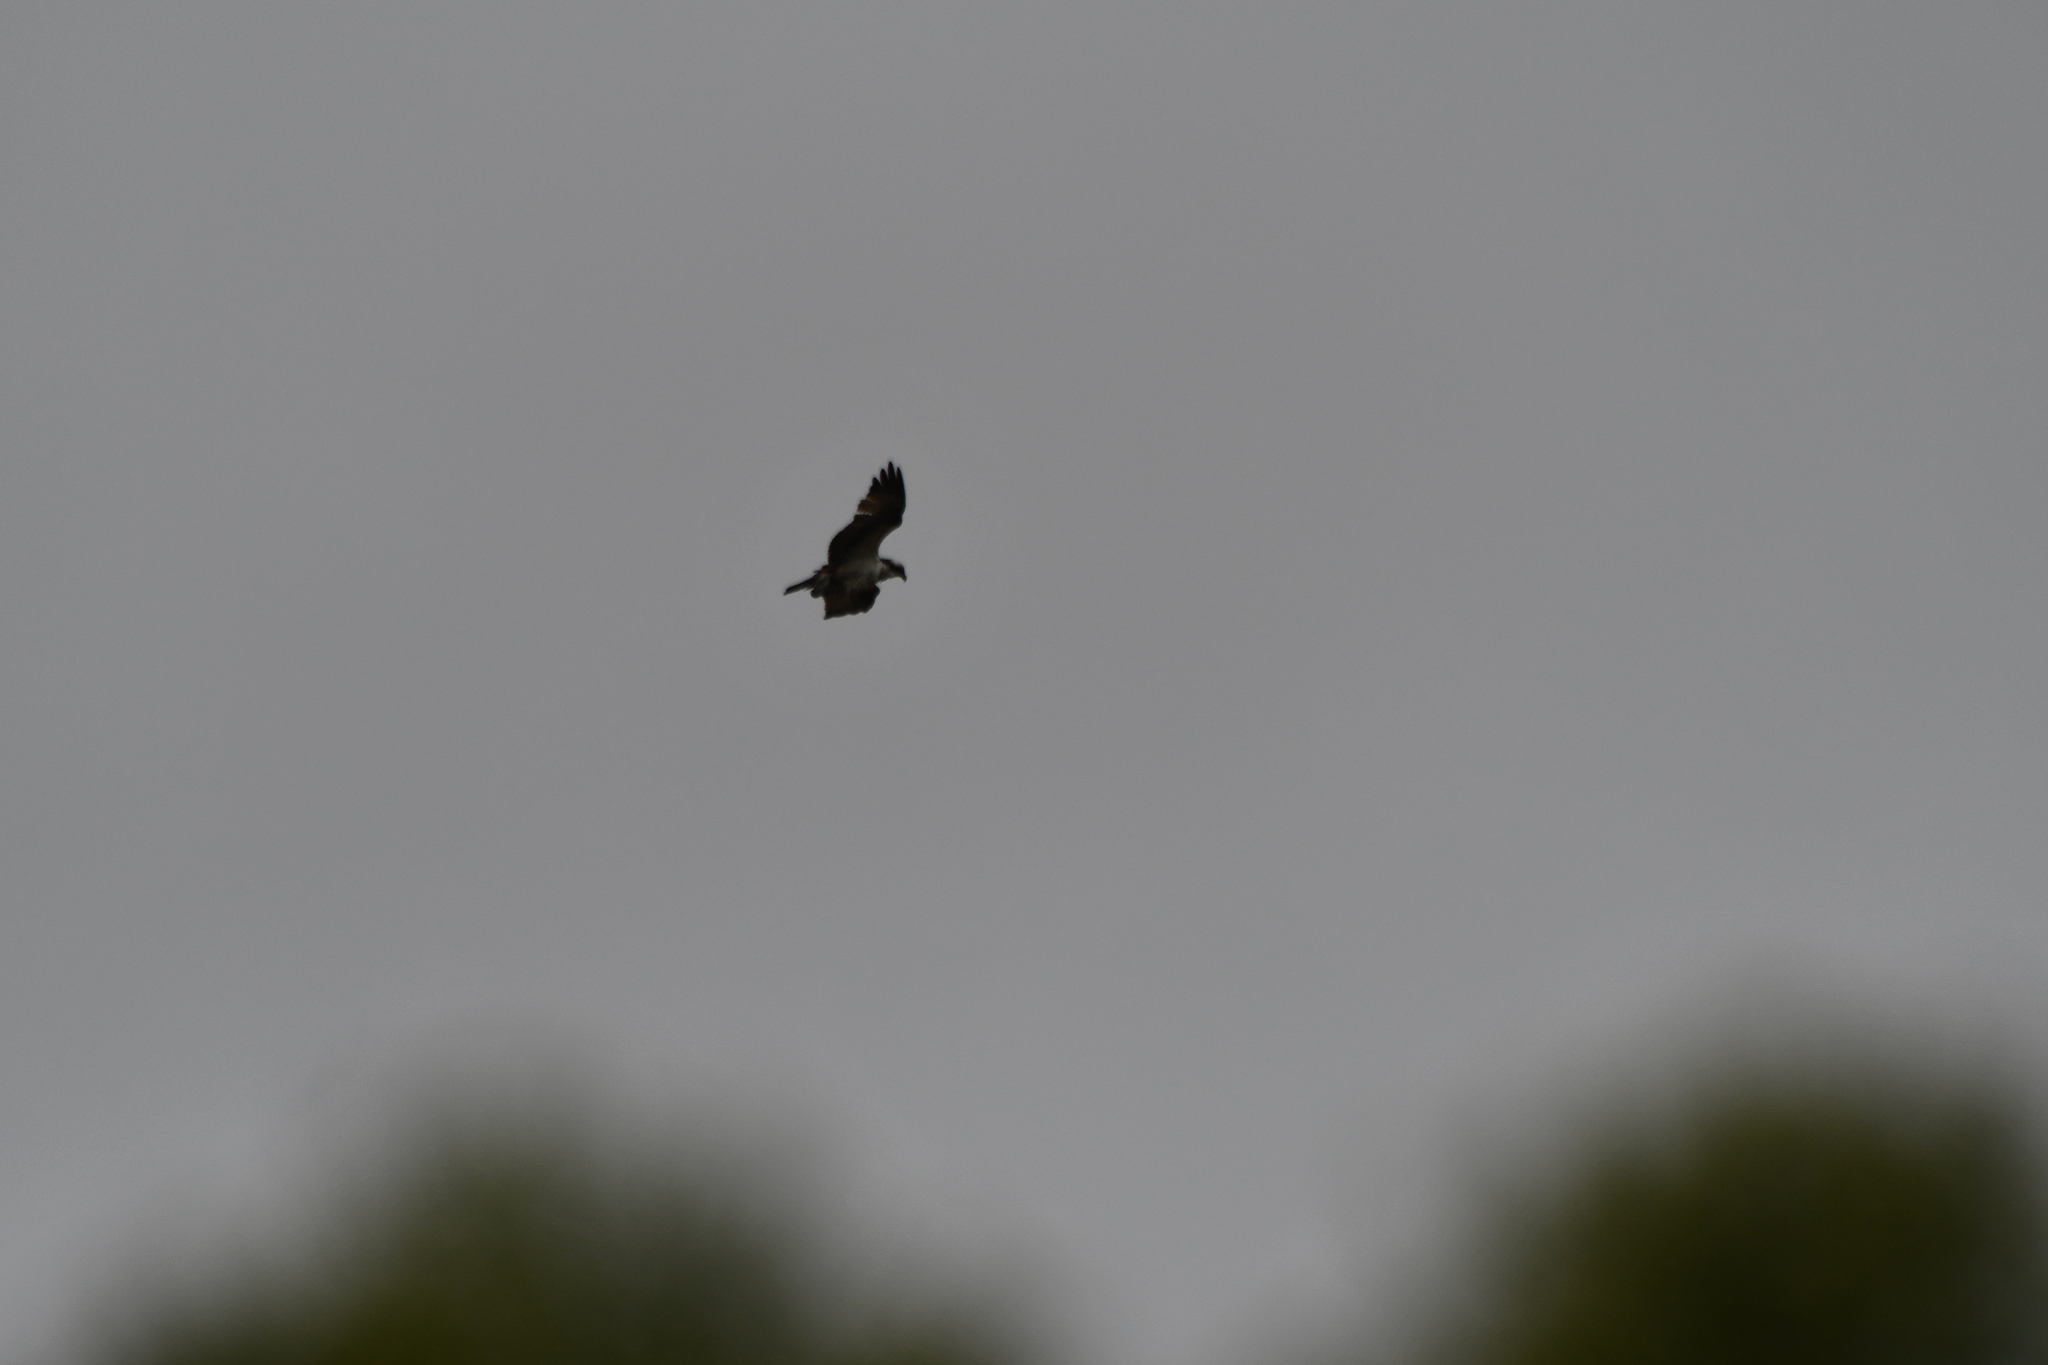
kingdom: Animalia
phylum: Chordata
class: Aves
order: Accipitriformes
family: Pandionidae
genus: Pandion
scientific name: Pandion haliaetus
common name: Osprey
